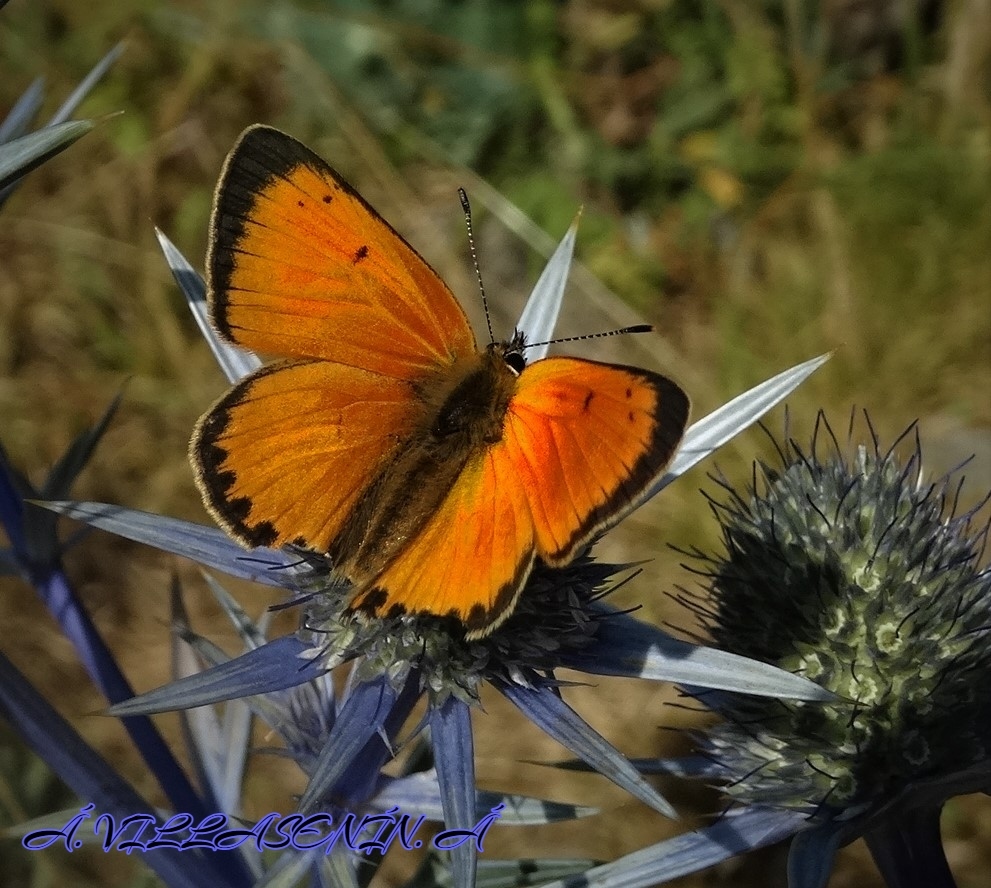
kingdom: Animalia
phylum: Arthropoda
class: Insecta
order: Lepidoptera
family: Lycaenidae
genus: Lycaena
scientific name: Lycaena virgaureae
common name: Scarce copper
